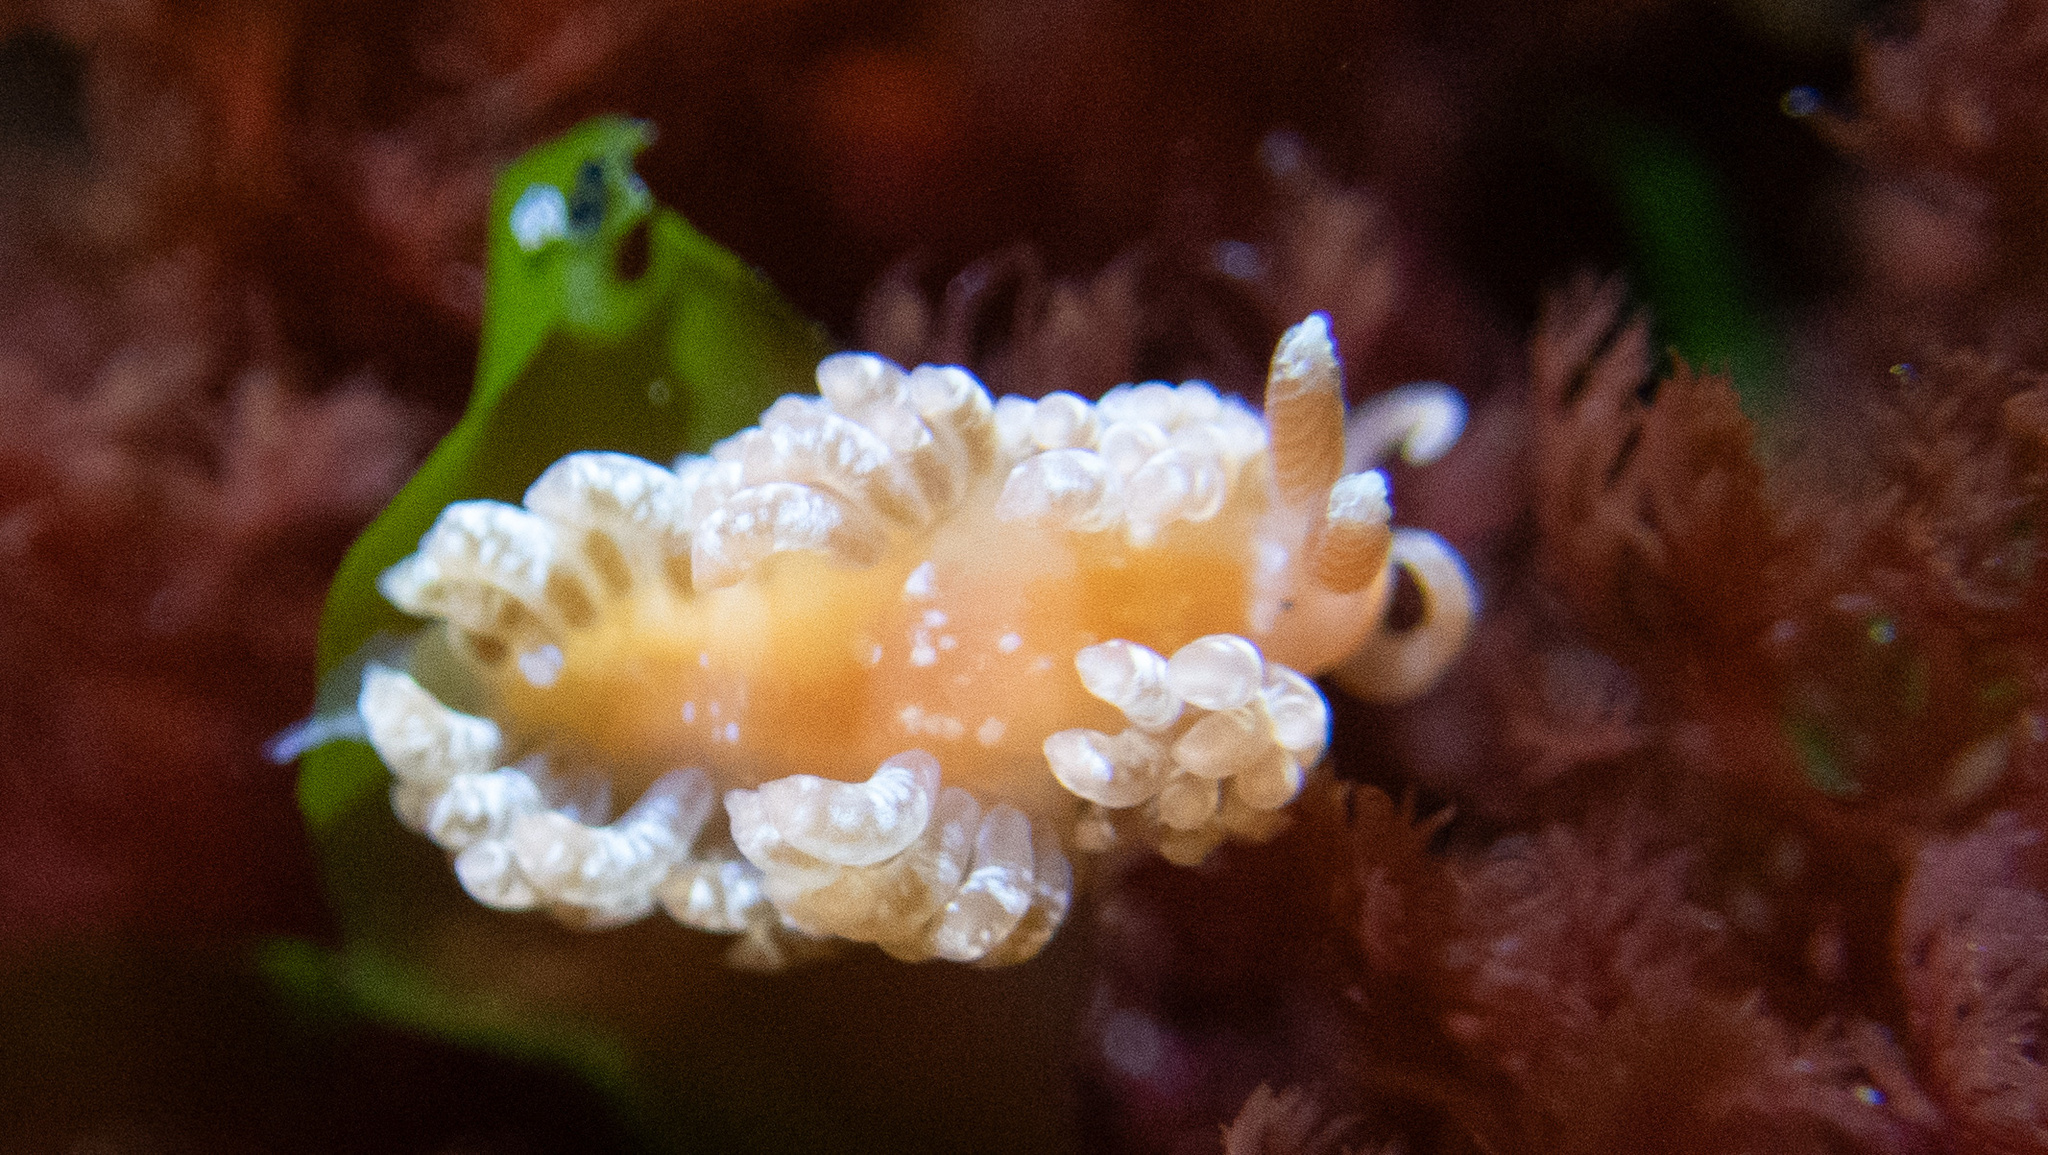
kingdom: Animalia
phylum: Mollusca
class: Gastropoda
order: Nudibranchia
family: Aeolidiidae
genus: Anteaeolidiella
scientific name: Anteaeolidiella chromosoma
